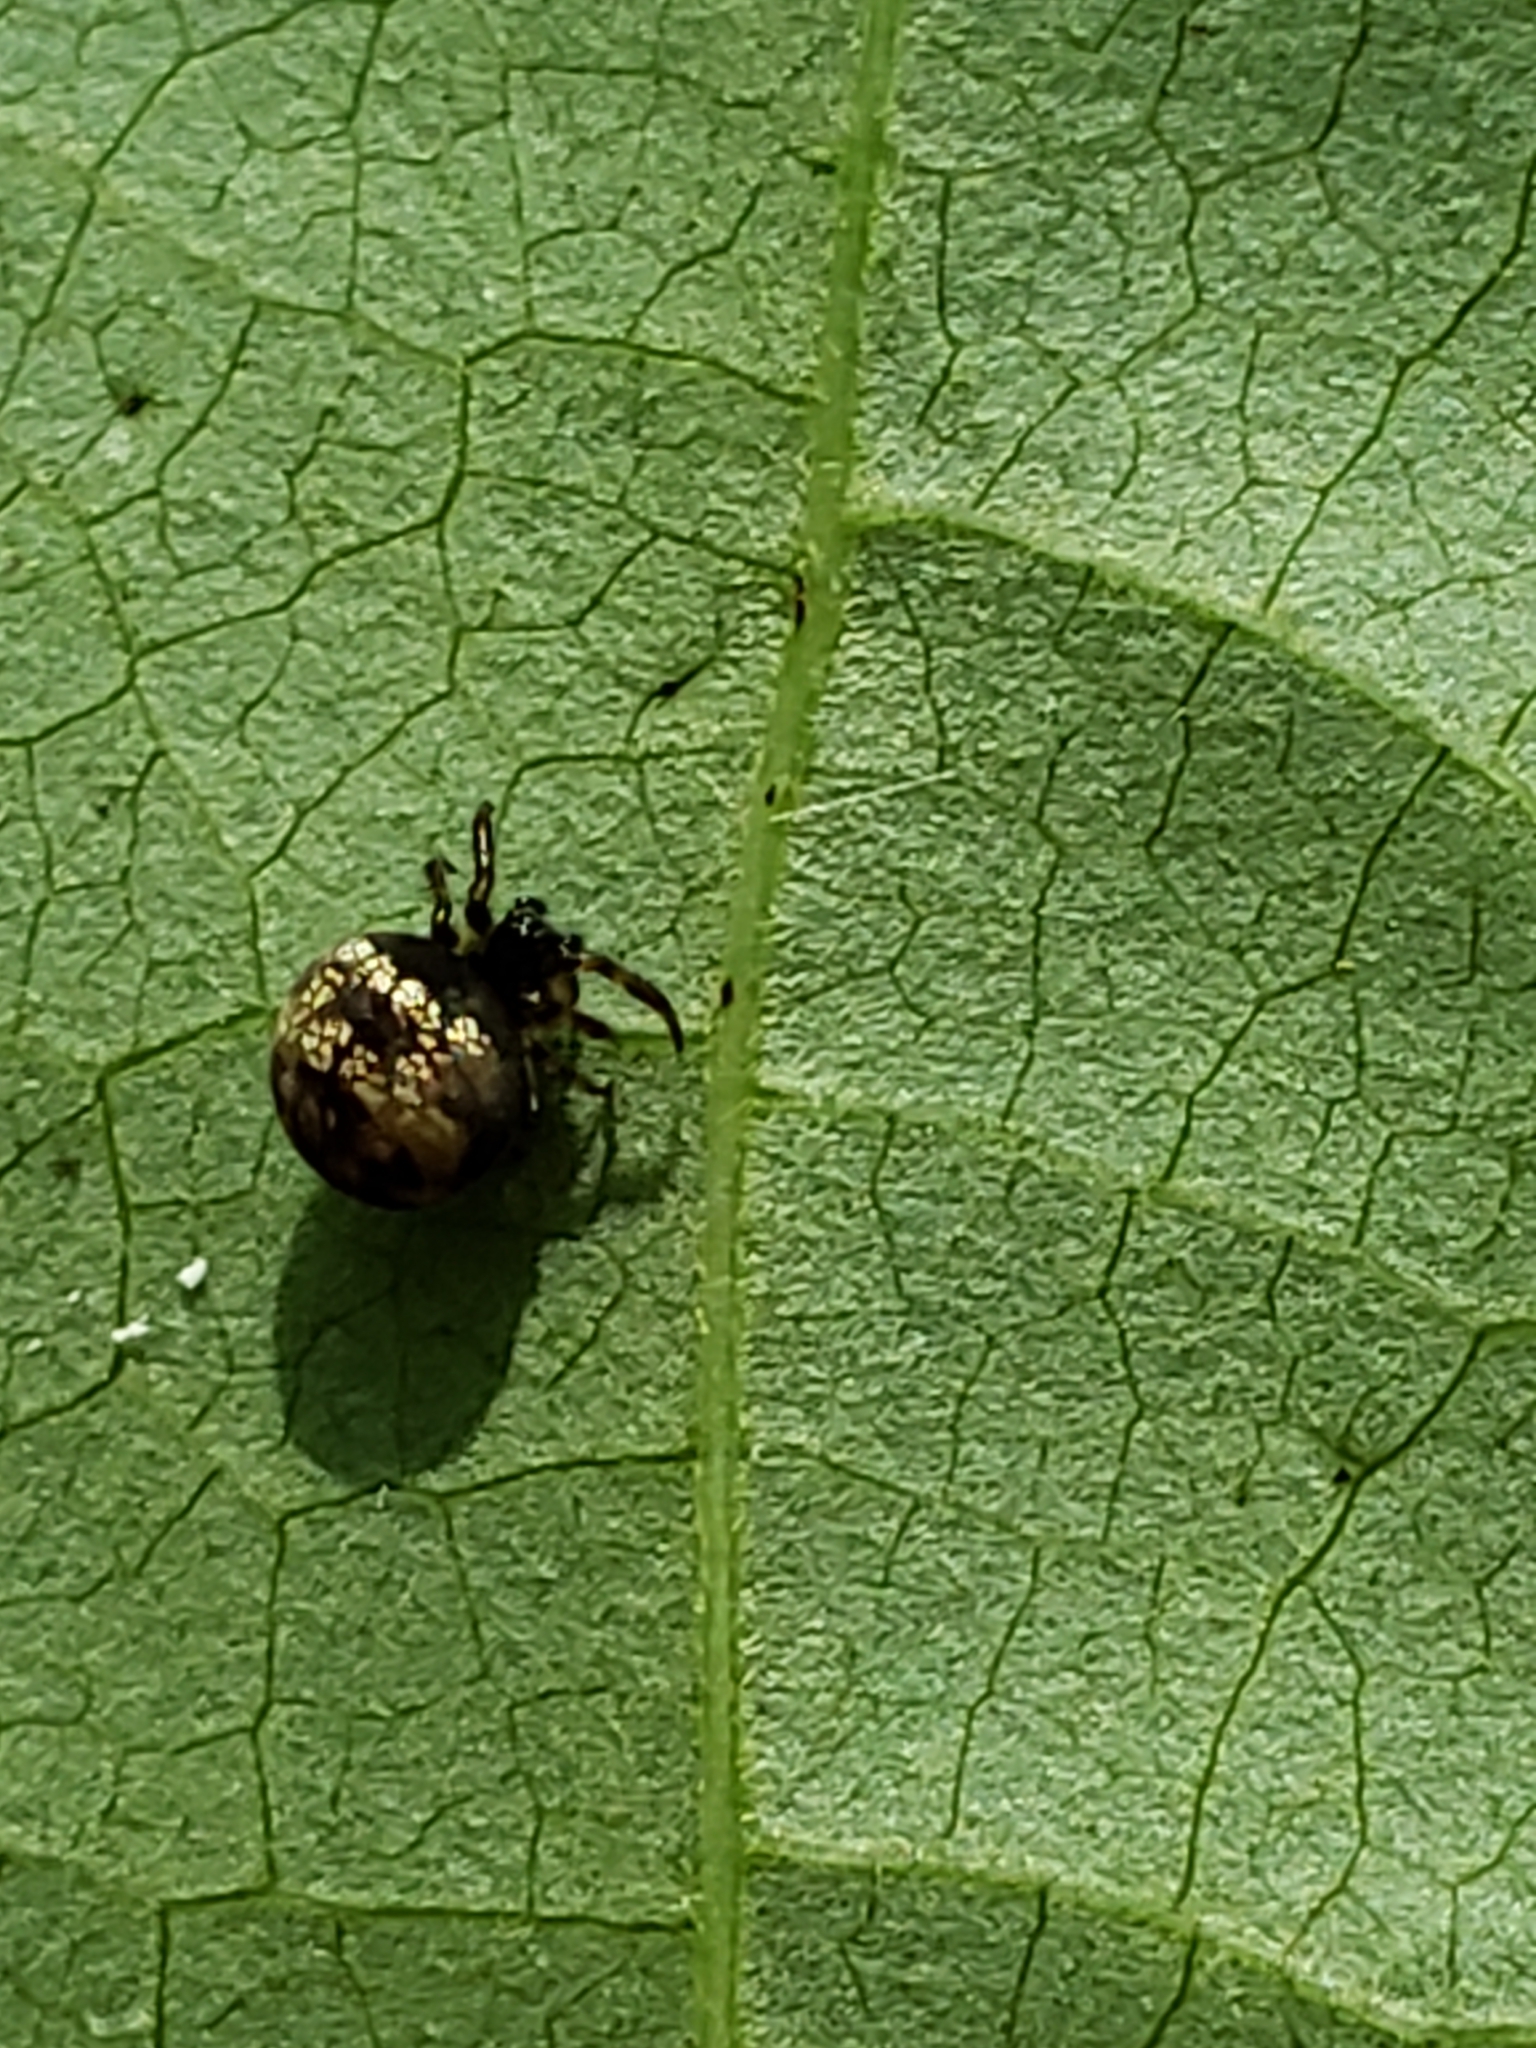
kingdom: Animalia
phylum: Arthropoda
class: Arachnida
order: Araneae
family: Theridiosomatidae
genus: Theridiosoma
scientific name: Theridiosoma gemmosum
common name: Ray spider
